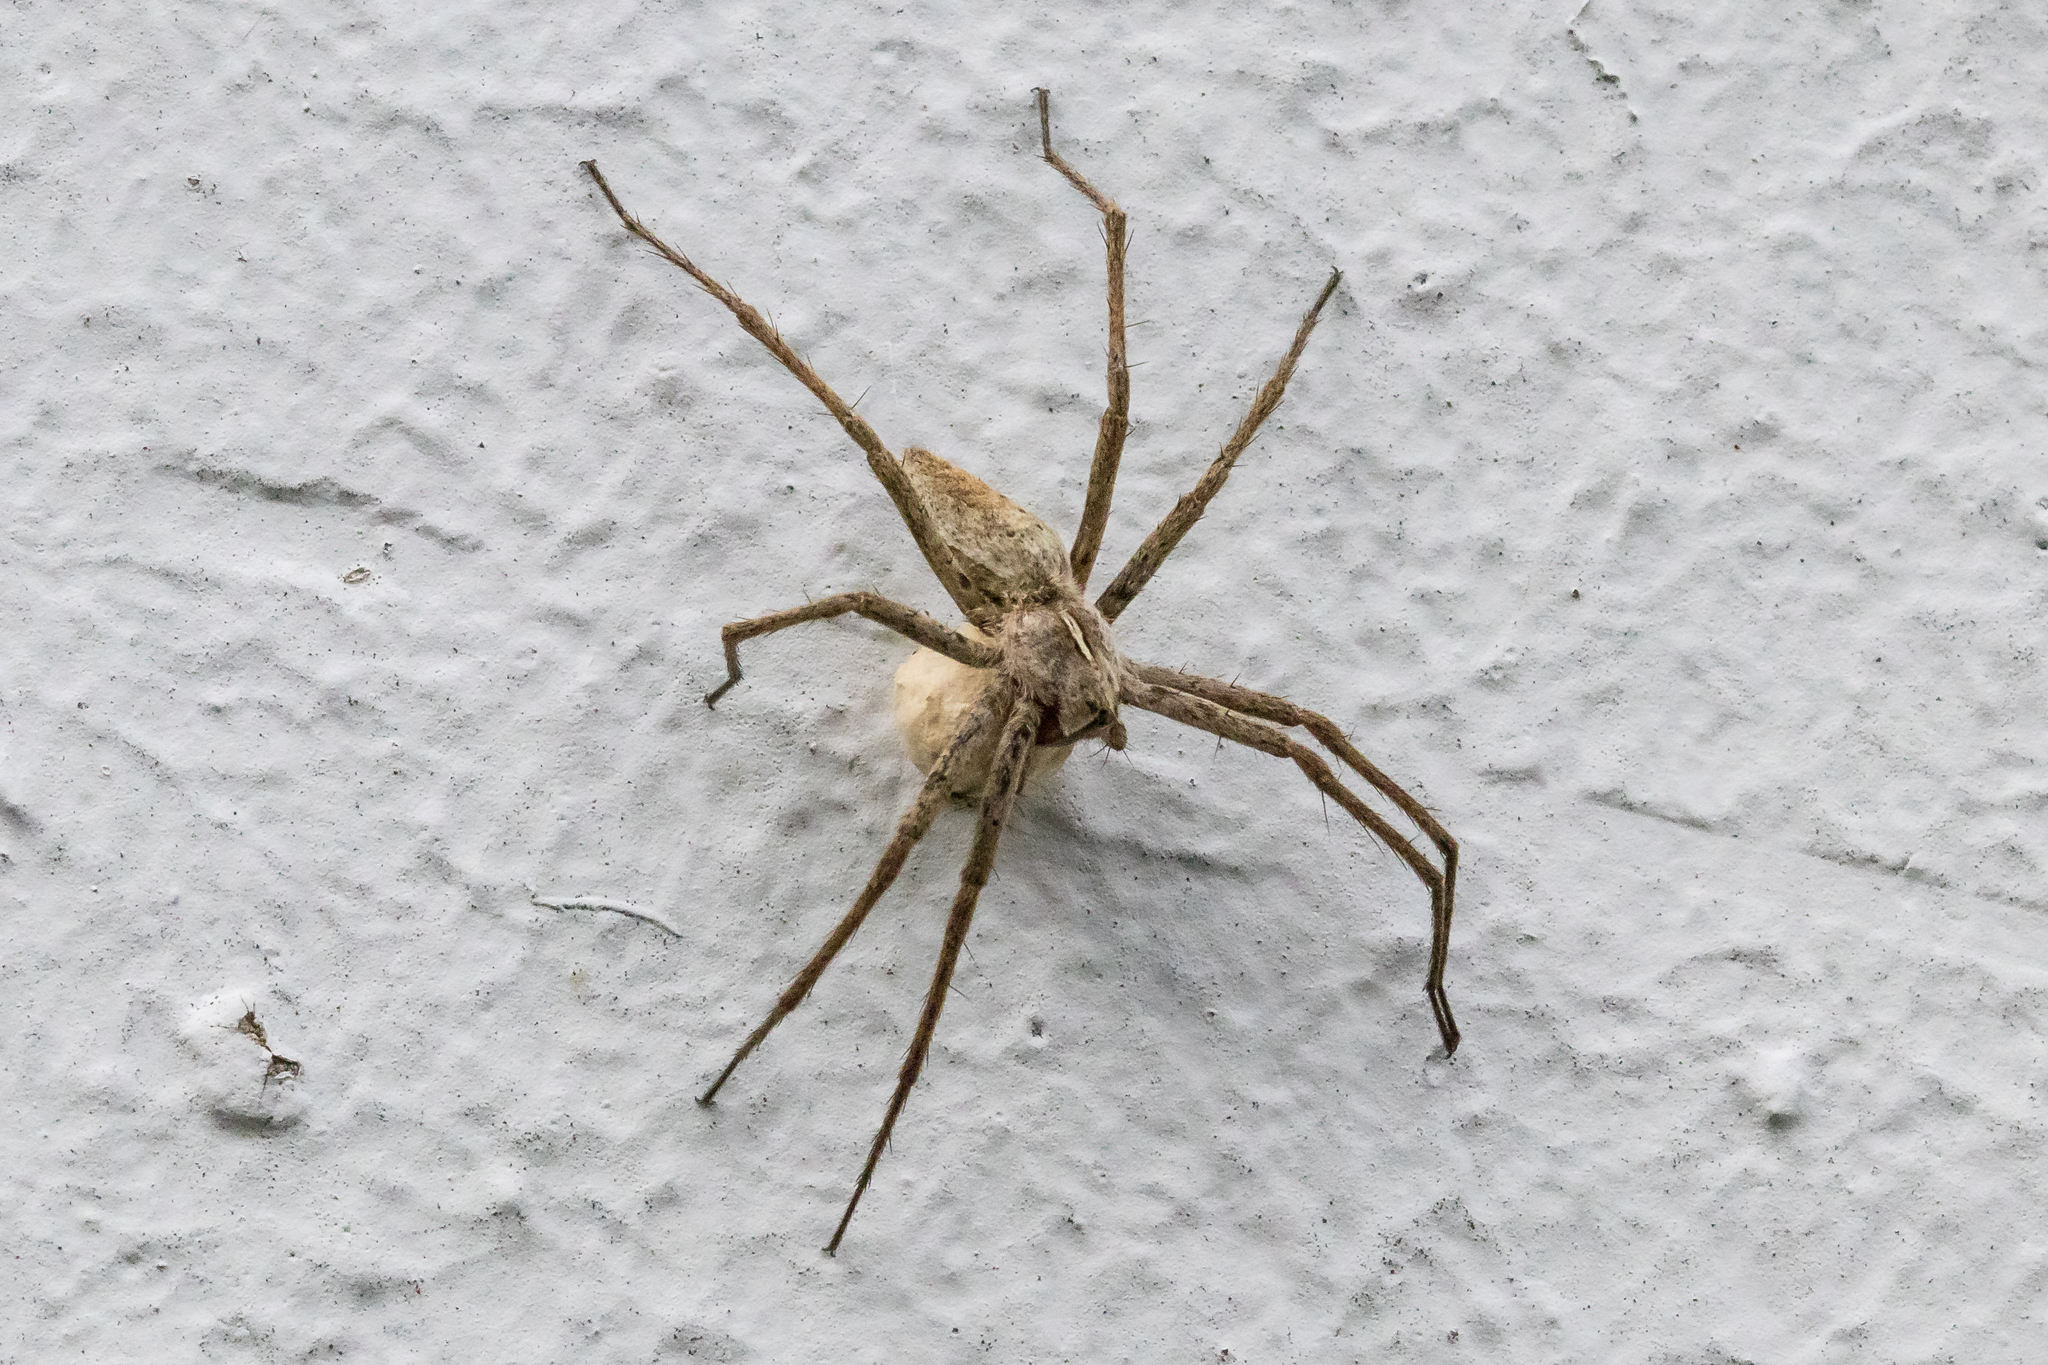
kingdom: Animalia
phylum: Arthropoda
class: Arachnida
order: Araneae
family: Pisauridae
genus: Pisaura
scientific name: Pisaura mirabilis
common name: Tent spider
